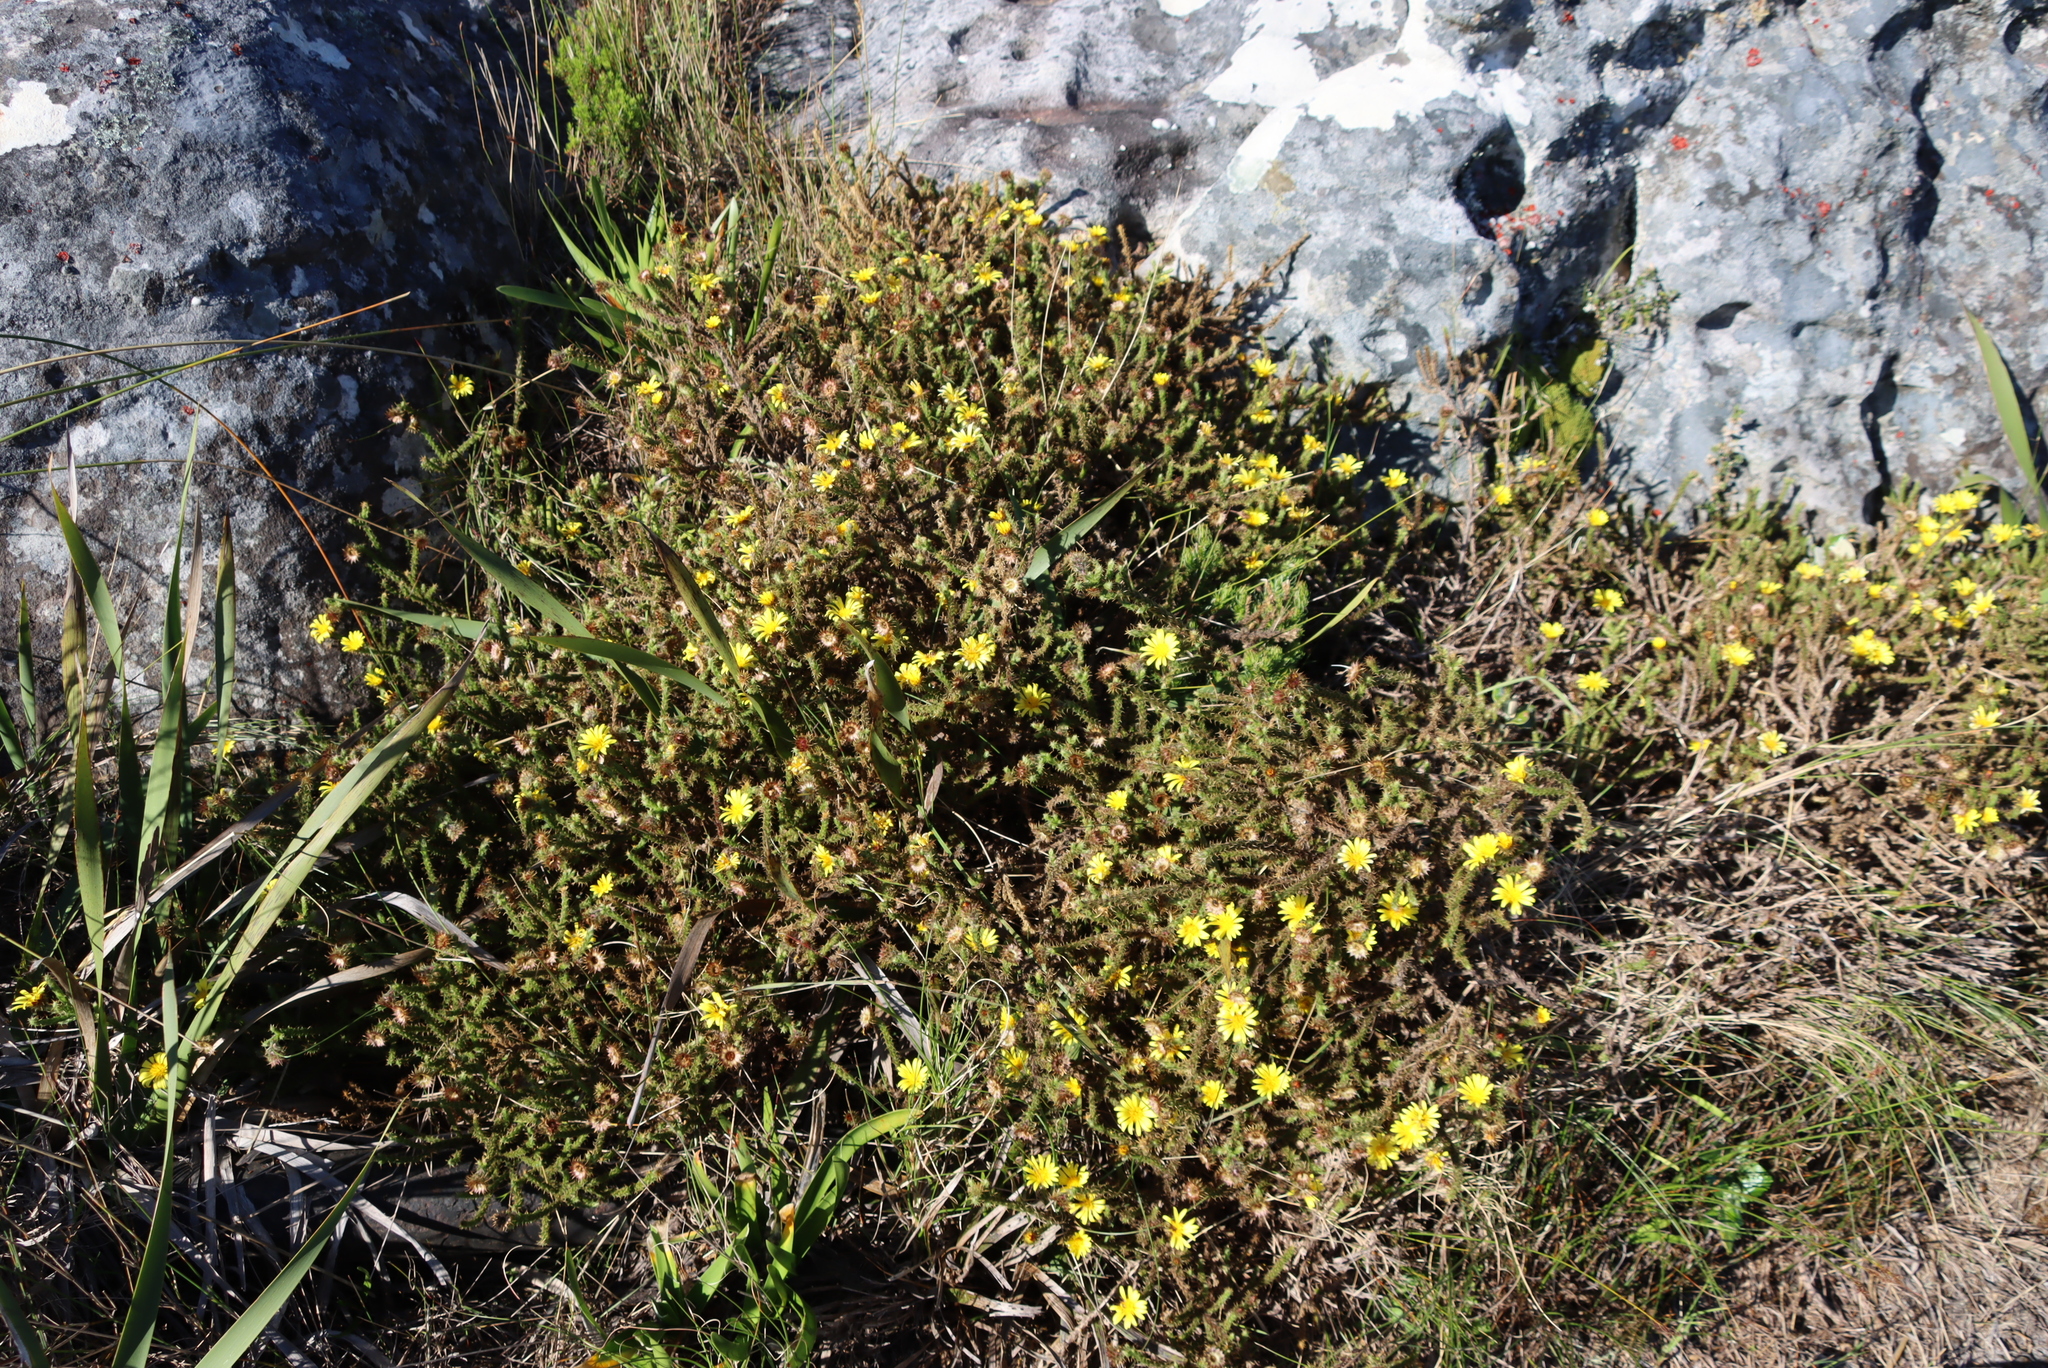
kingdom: Plantae
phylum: Tracheophyta
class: Magnoliopsida
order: Asterales
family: Asteraceae
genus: Cullumia
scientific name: Cullumia reticulata
